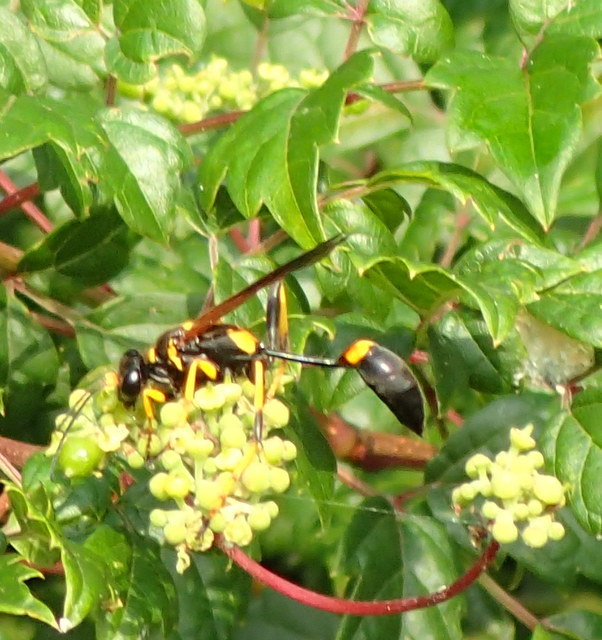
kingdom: Animalia
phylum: Arthropoda
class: Insecta
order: Hymenoptera
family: Sphecidae
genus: Sceliphron
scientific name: Sceliphron caementarium
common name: Mud dauber
